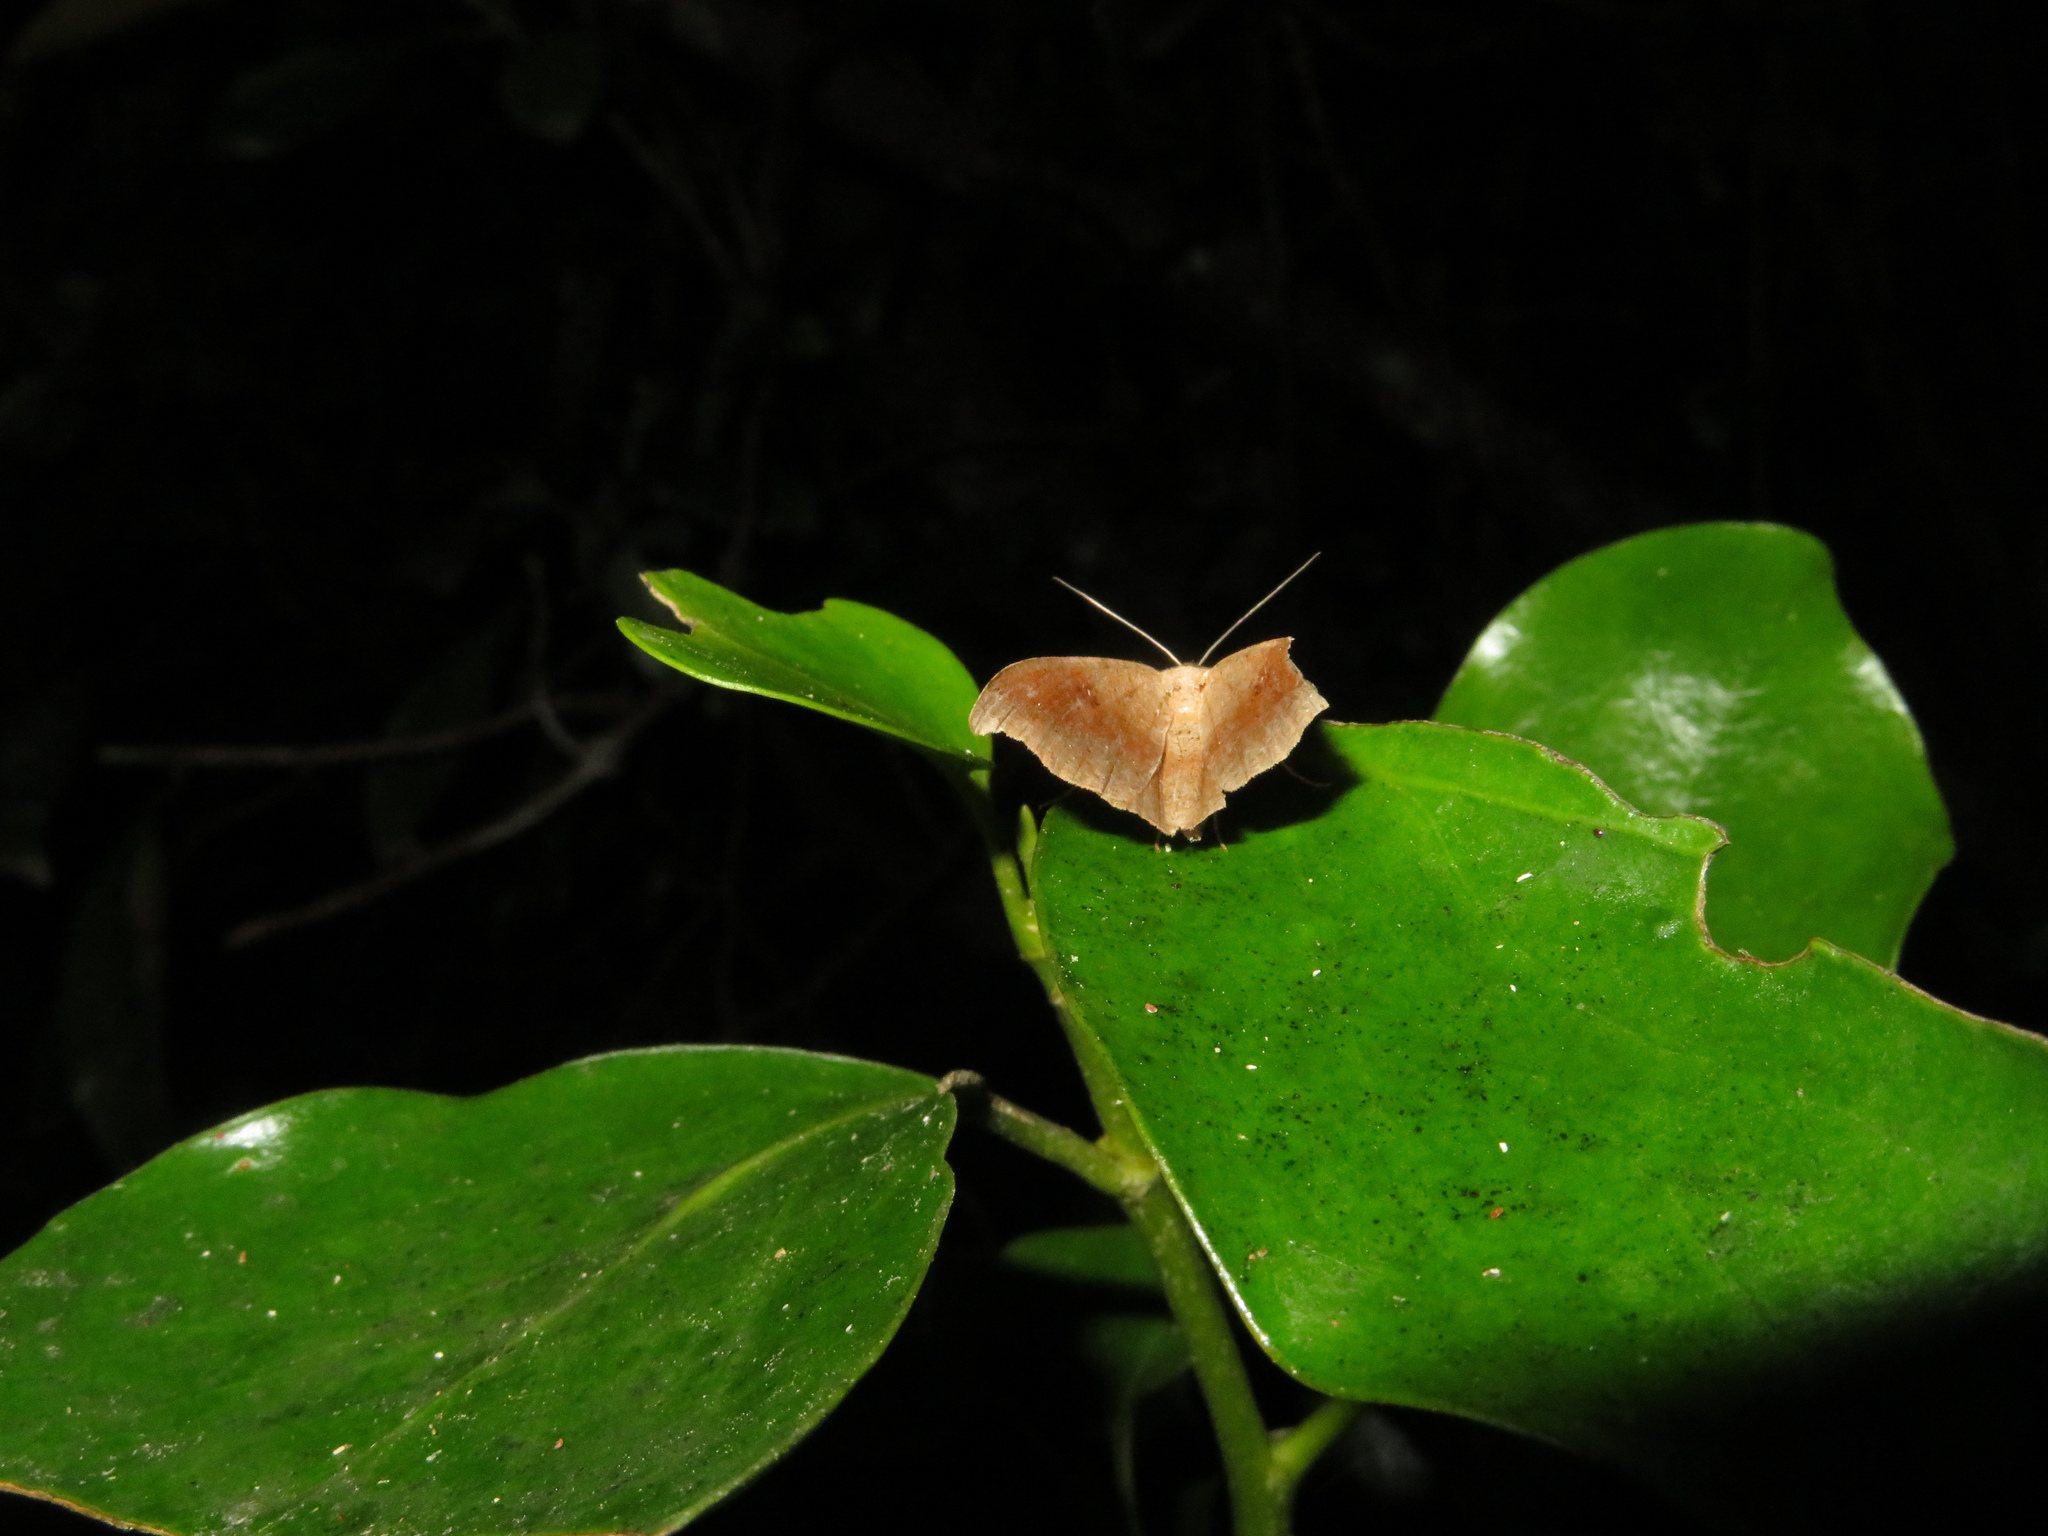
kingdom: Animalia
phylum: Arthropoda
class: Insecta
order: Lepidoptera
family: Geometridae
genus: Sarisa
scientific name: Sarisa muriferata
